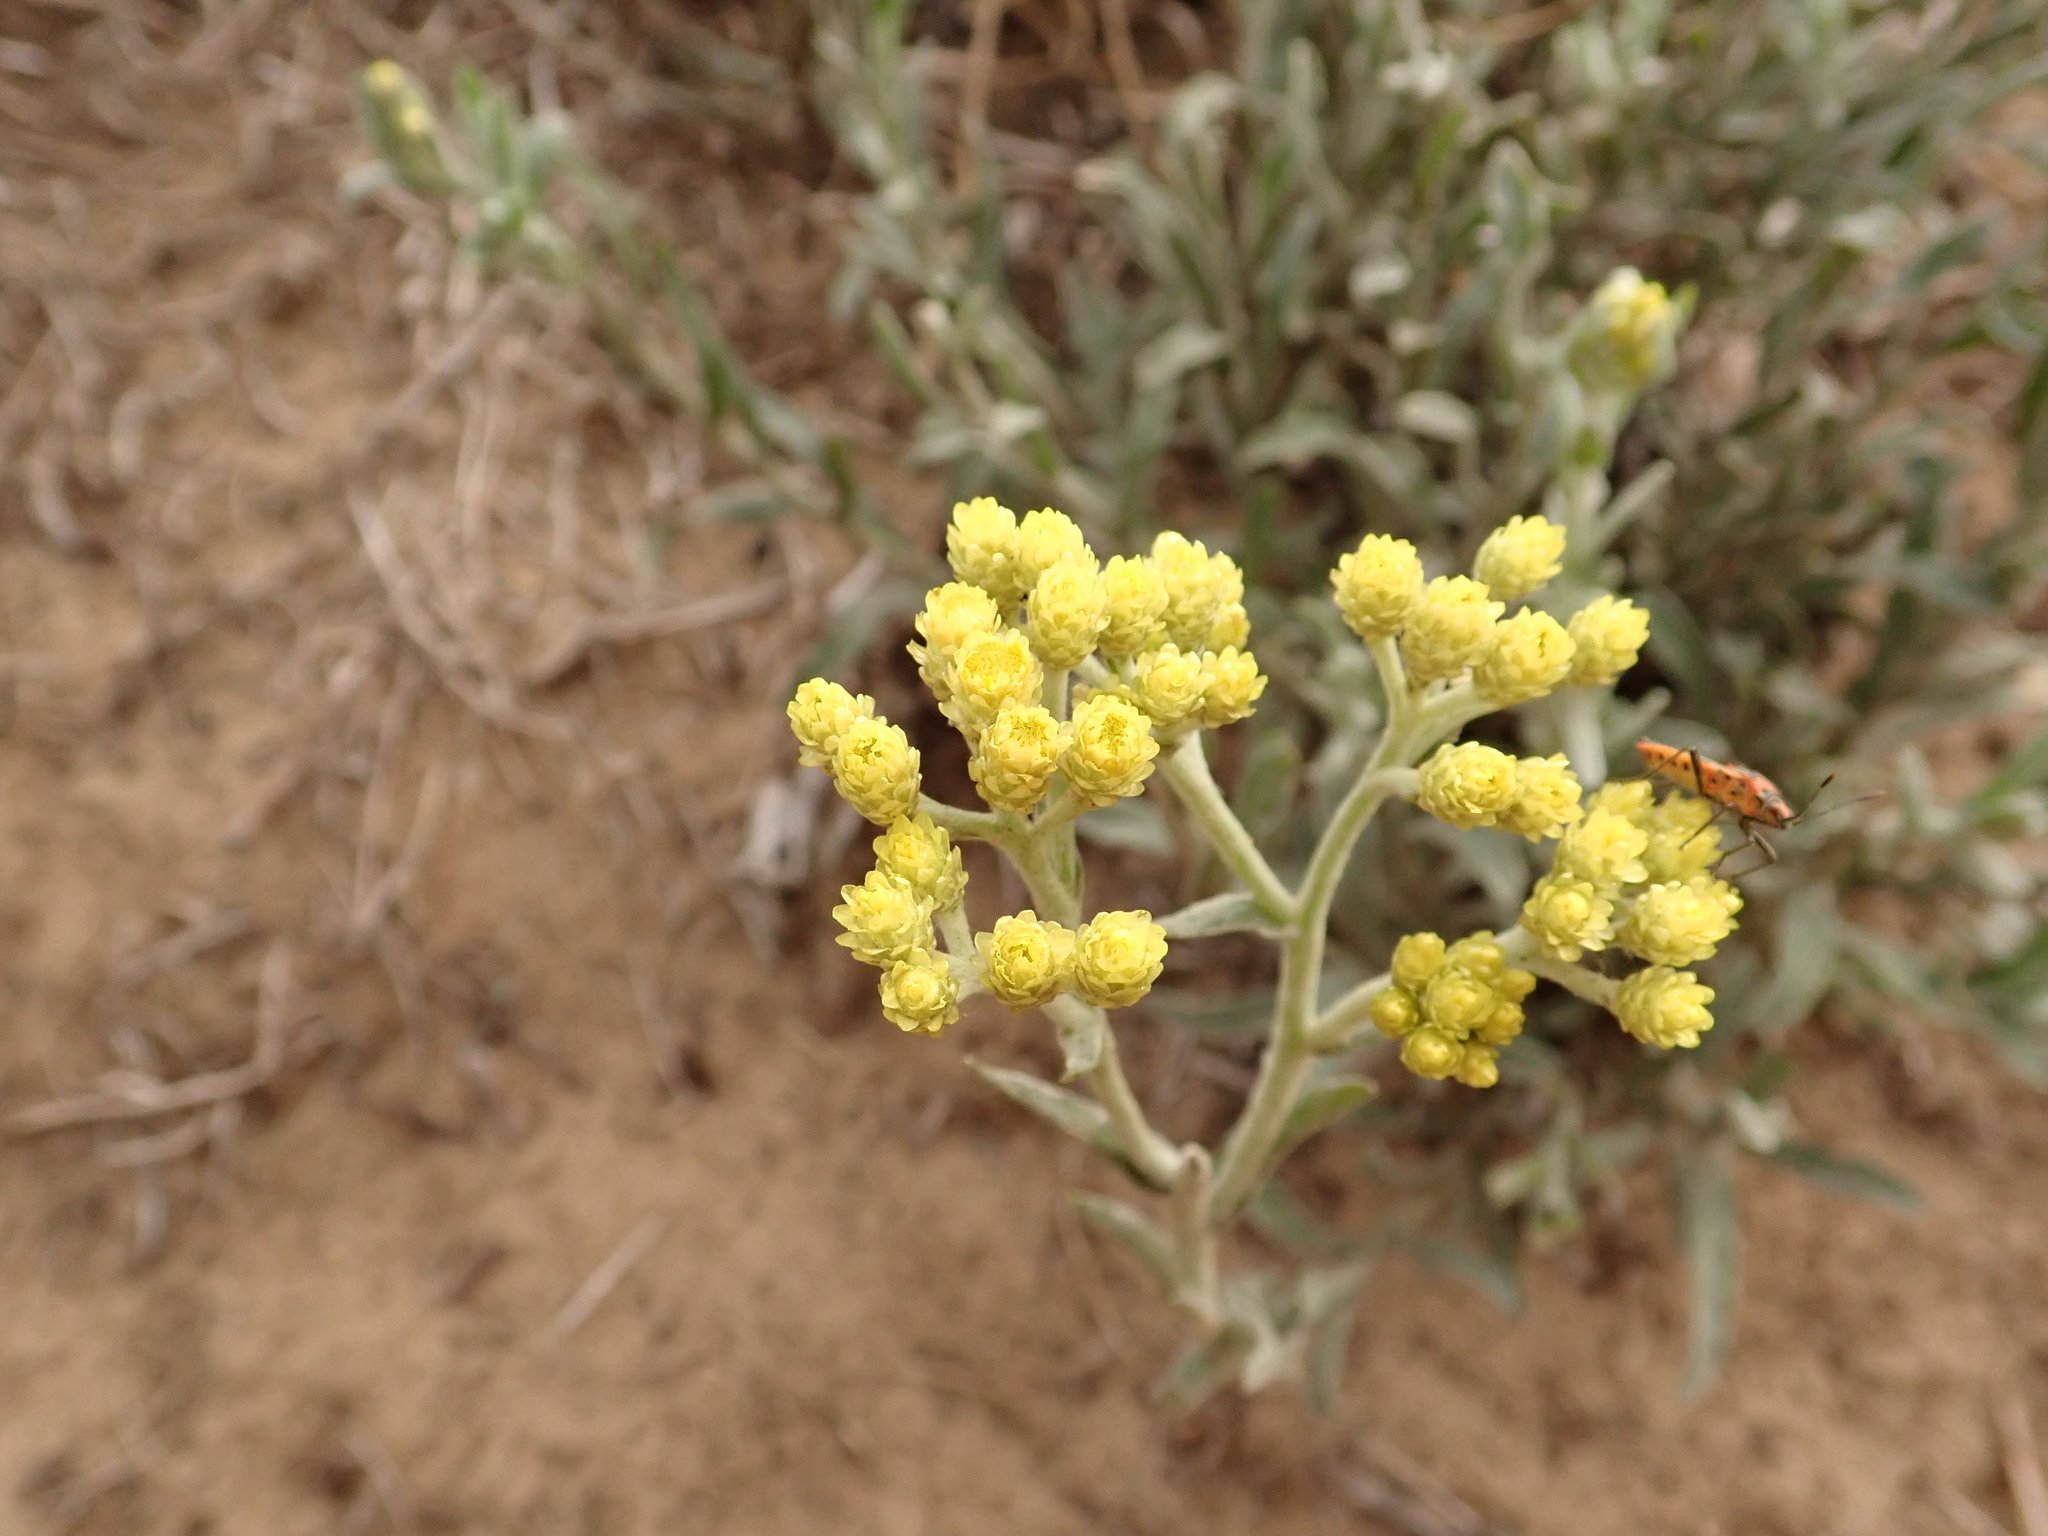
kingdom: Plantae
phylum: Tracheophyta
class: Magnoliopsida
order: Asterales
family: Asteraceae
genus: Helichrysum
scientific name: Helichrysum arenarium
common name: Strawflower
